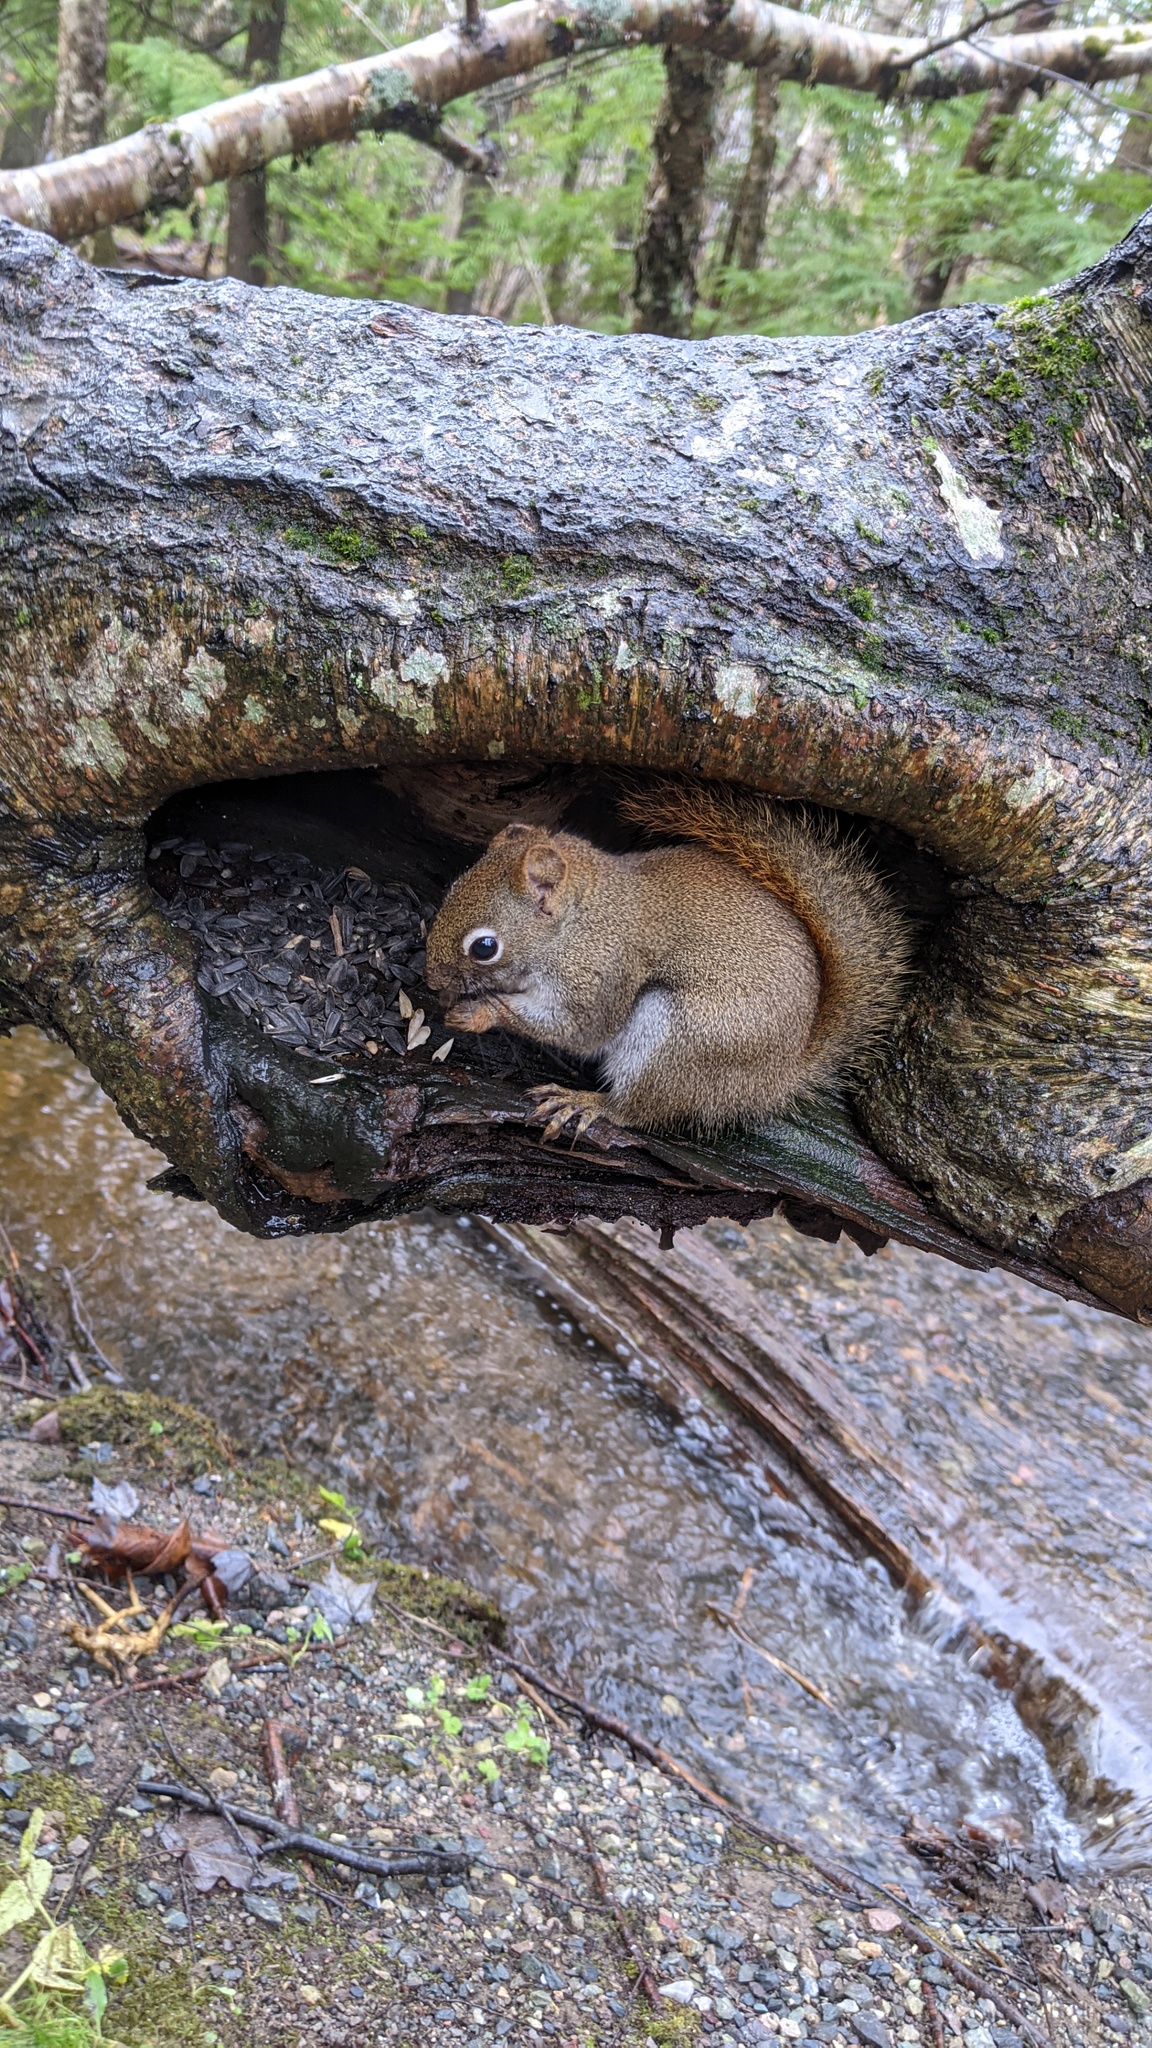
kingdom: Animalia
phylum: Chordata
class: Mammalia
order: Rodentia
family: Sciuridae
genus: Tamiasciurus
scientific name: Tamiasciurus hudsonicus
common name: Red squirrel
